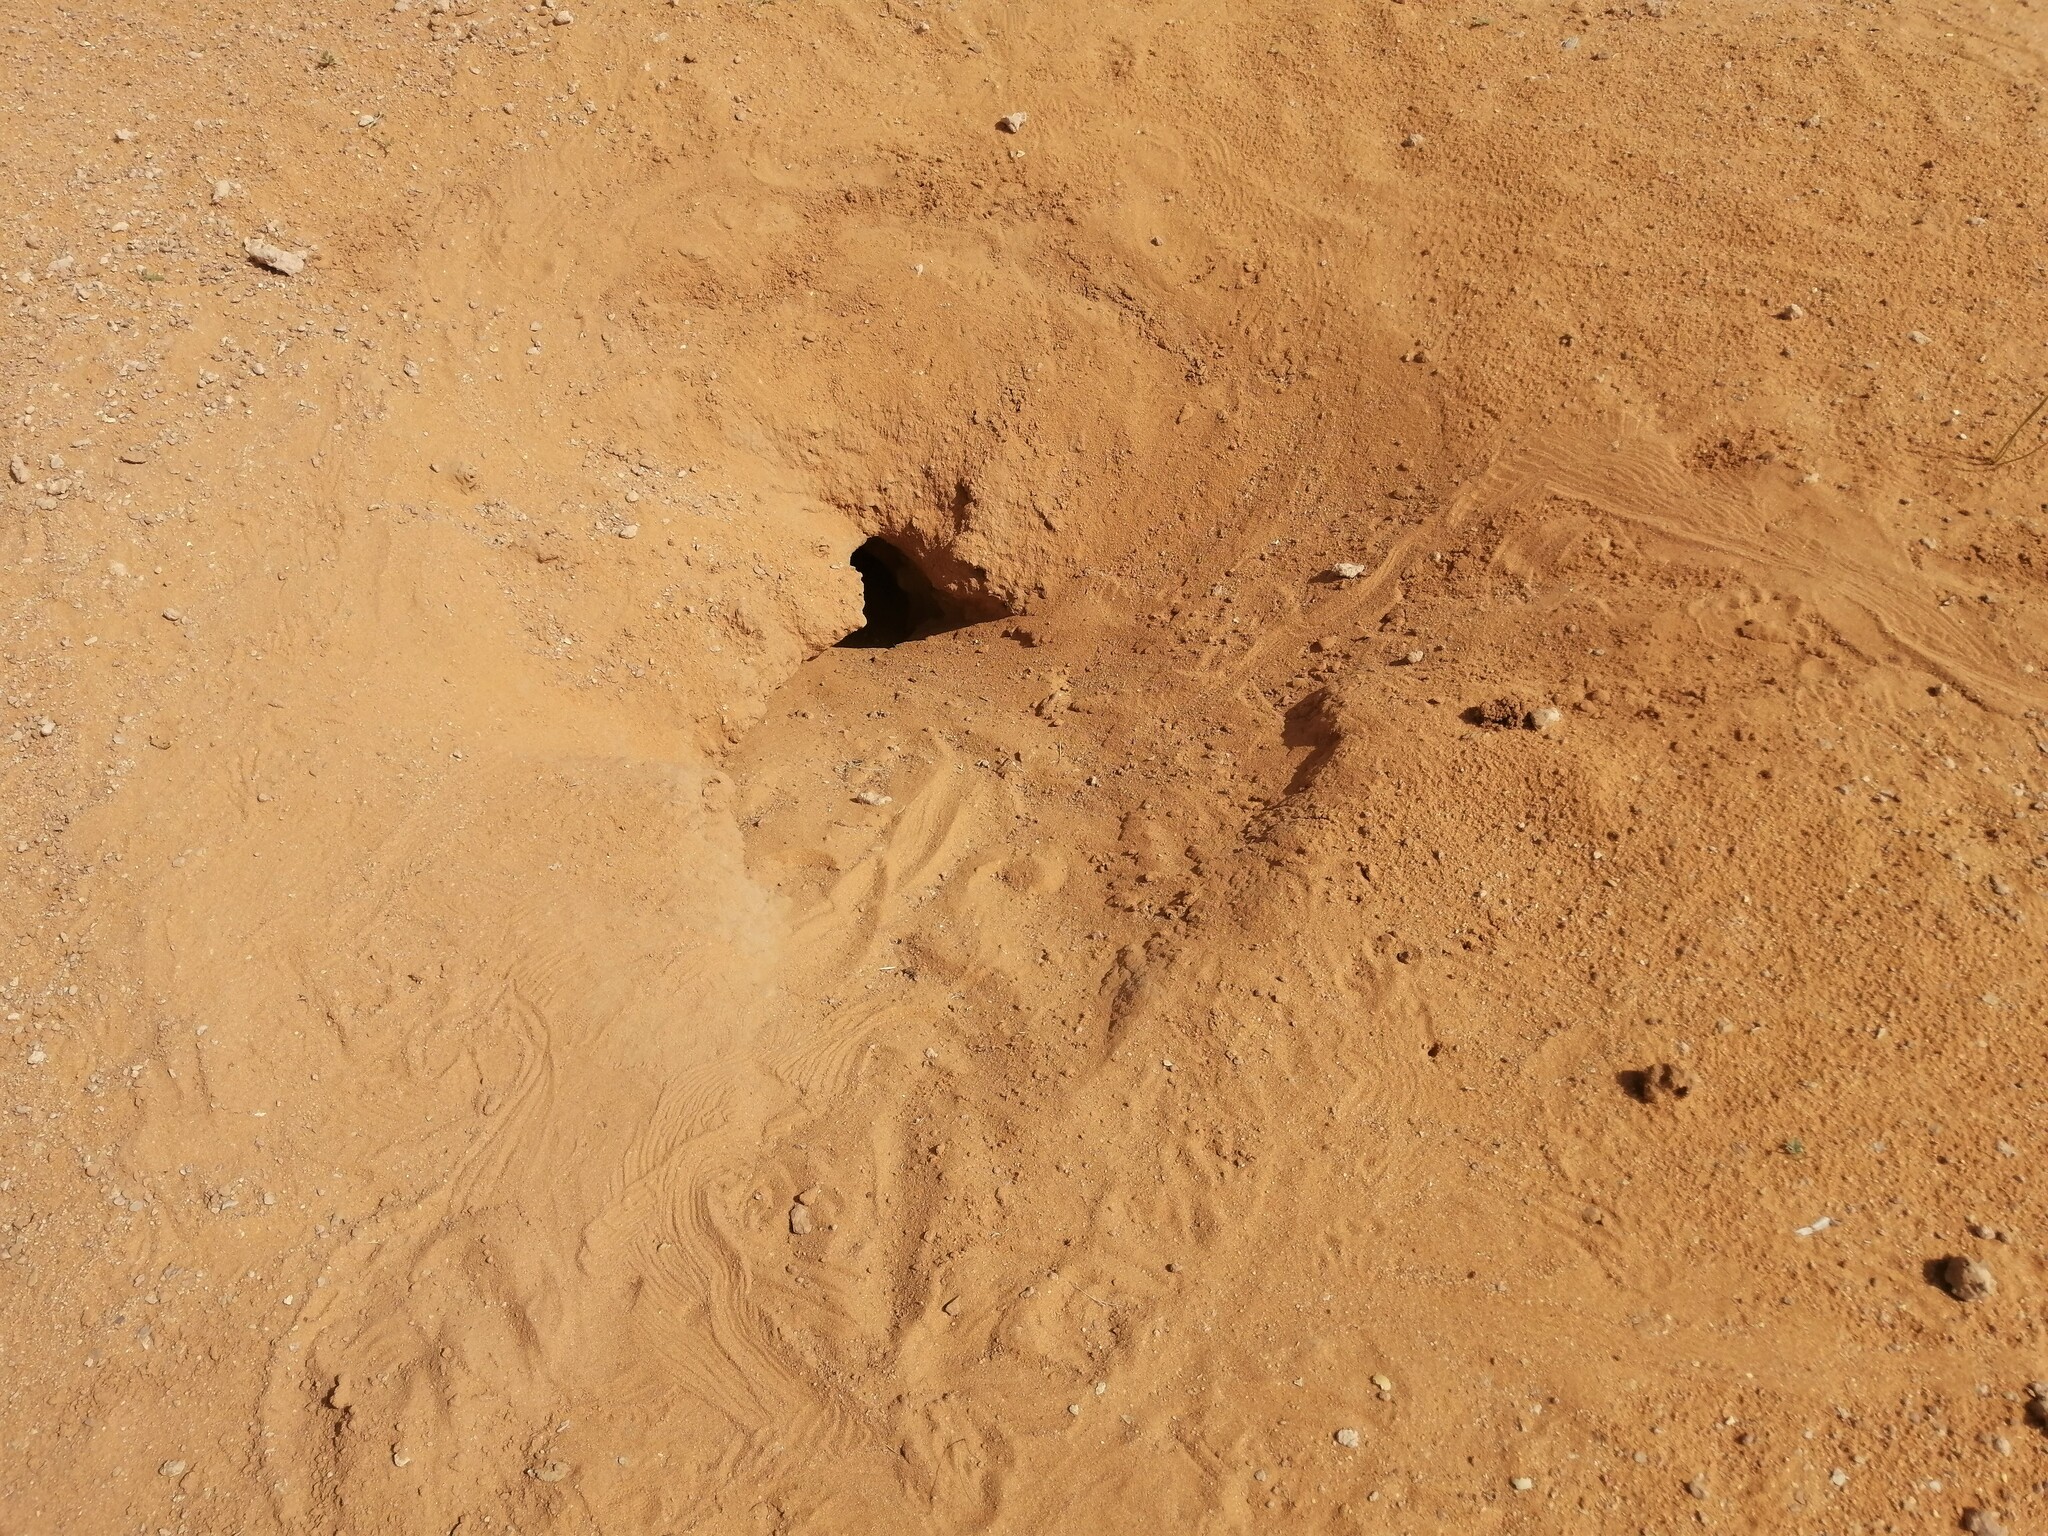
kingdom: Animalia
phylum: Chordata
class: Squamata
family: Agamidae
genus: Uromastyx
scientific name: Uromastyx aegyptia
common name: Egyptian mastigure
